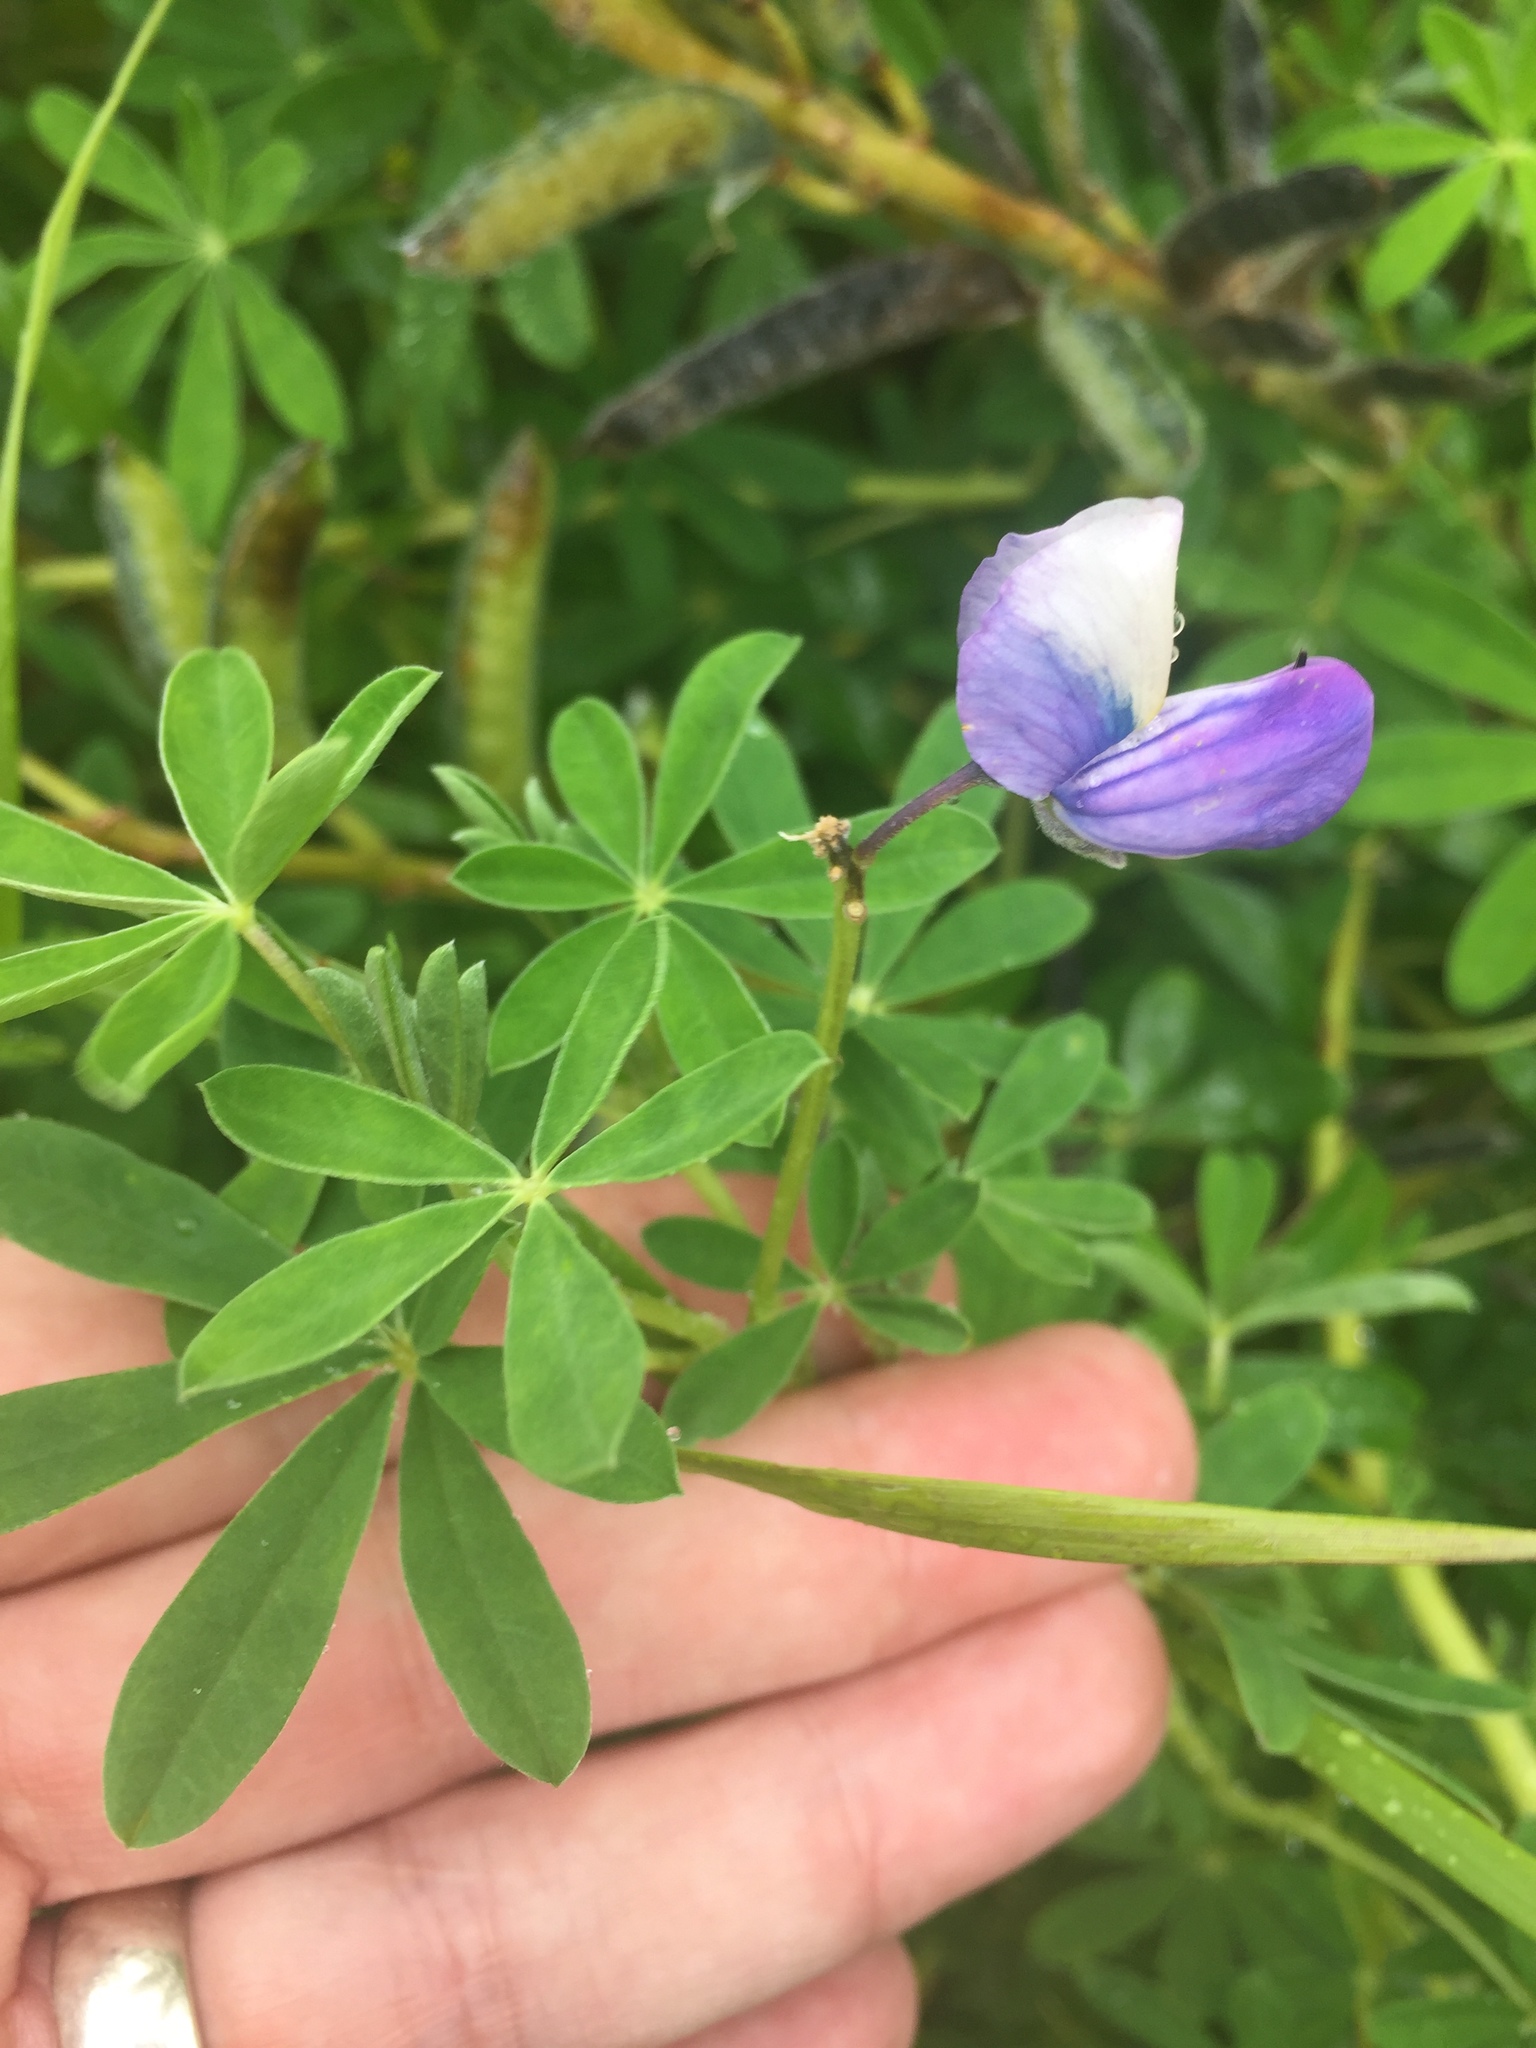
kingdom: Plantae
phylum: Tracheophyta
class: Magnoliopsida
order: Fabales
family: Fabaceae
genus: Lupinus
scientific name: Lupinus nootkatensis
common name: Nootka lupine
